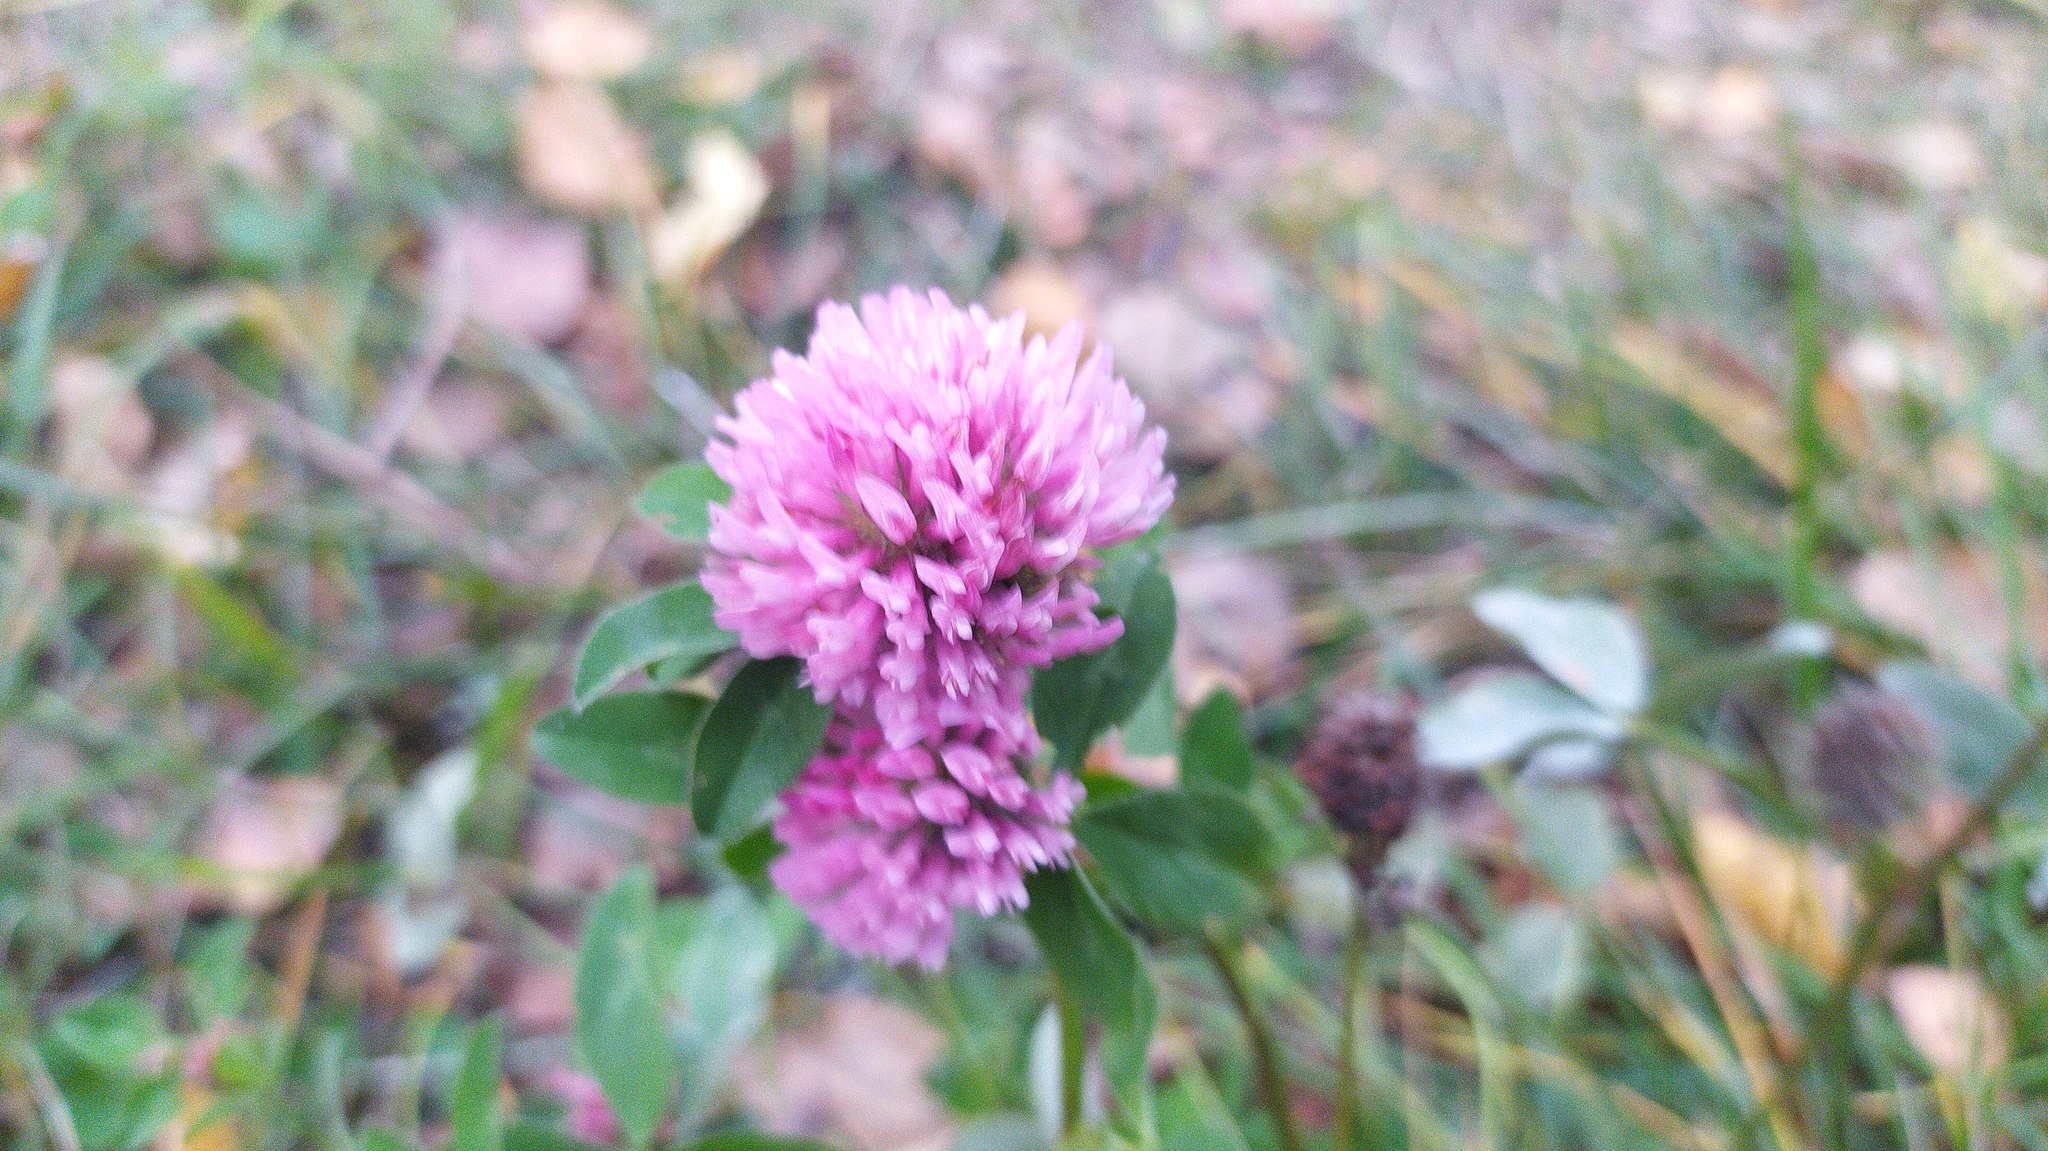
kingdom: Plantae
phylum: Tracheophyta
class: Magnoliopsida
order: Fabales
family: Fabaceae
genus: Trifolium
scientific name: Trifolium pratense
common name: Red clover
